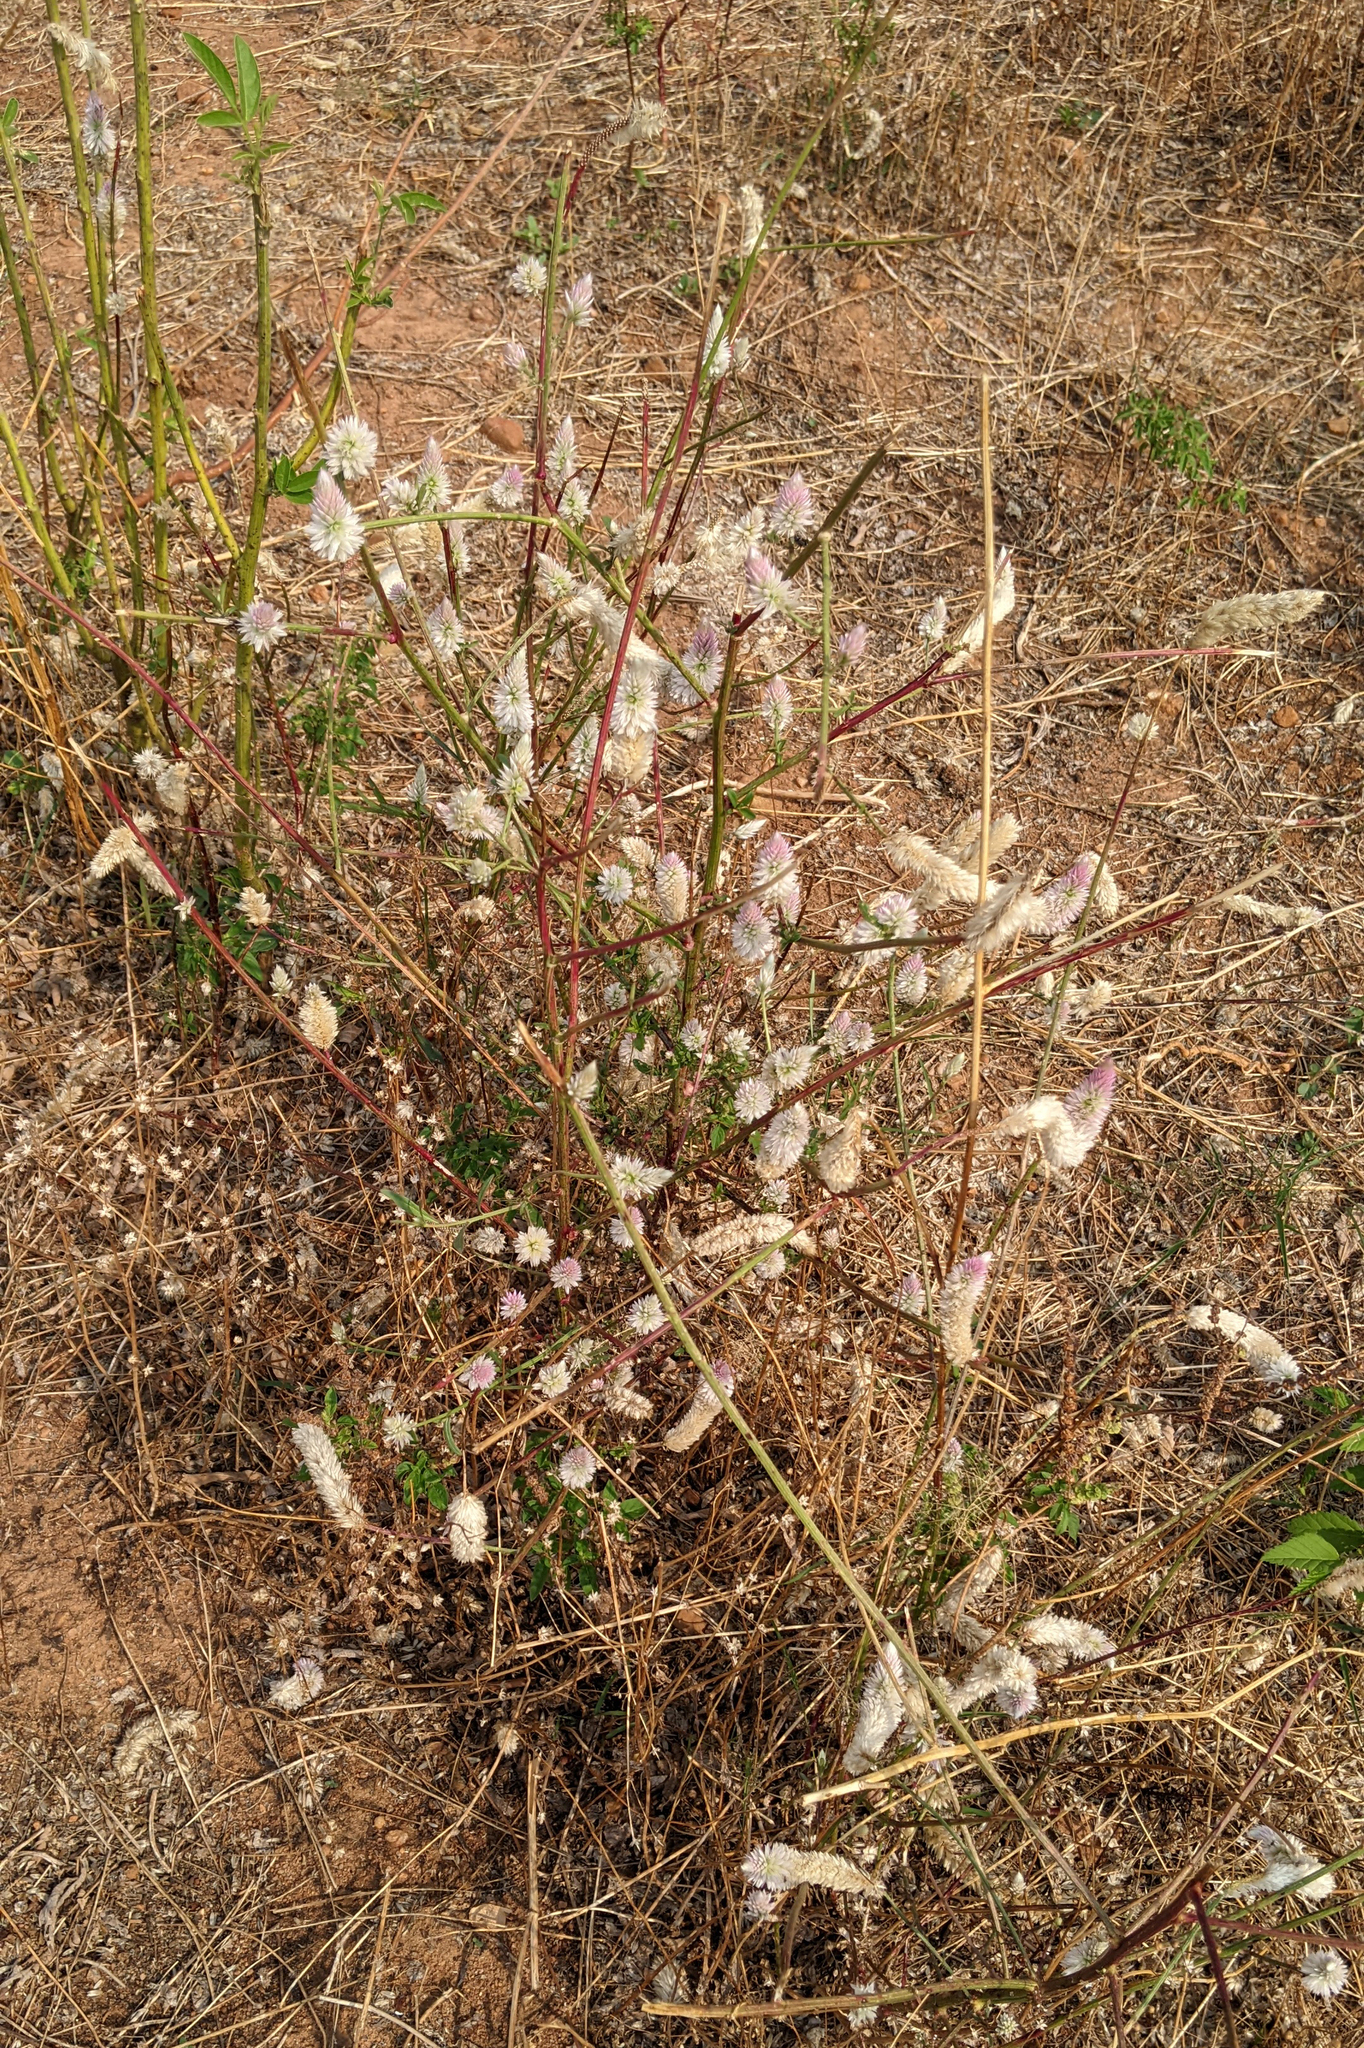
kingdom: Plantae
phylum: Tracheophyta
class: Magnoliopsida
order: Caryophyllales
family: Amaranthaceae
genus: Celosia
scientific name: Celosia argentea
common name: Feather cockscomb
